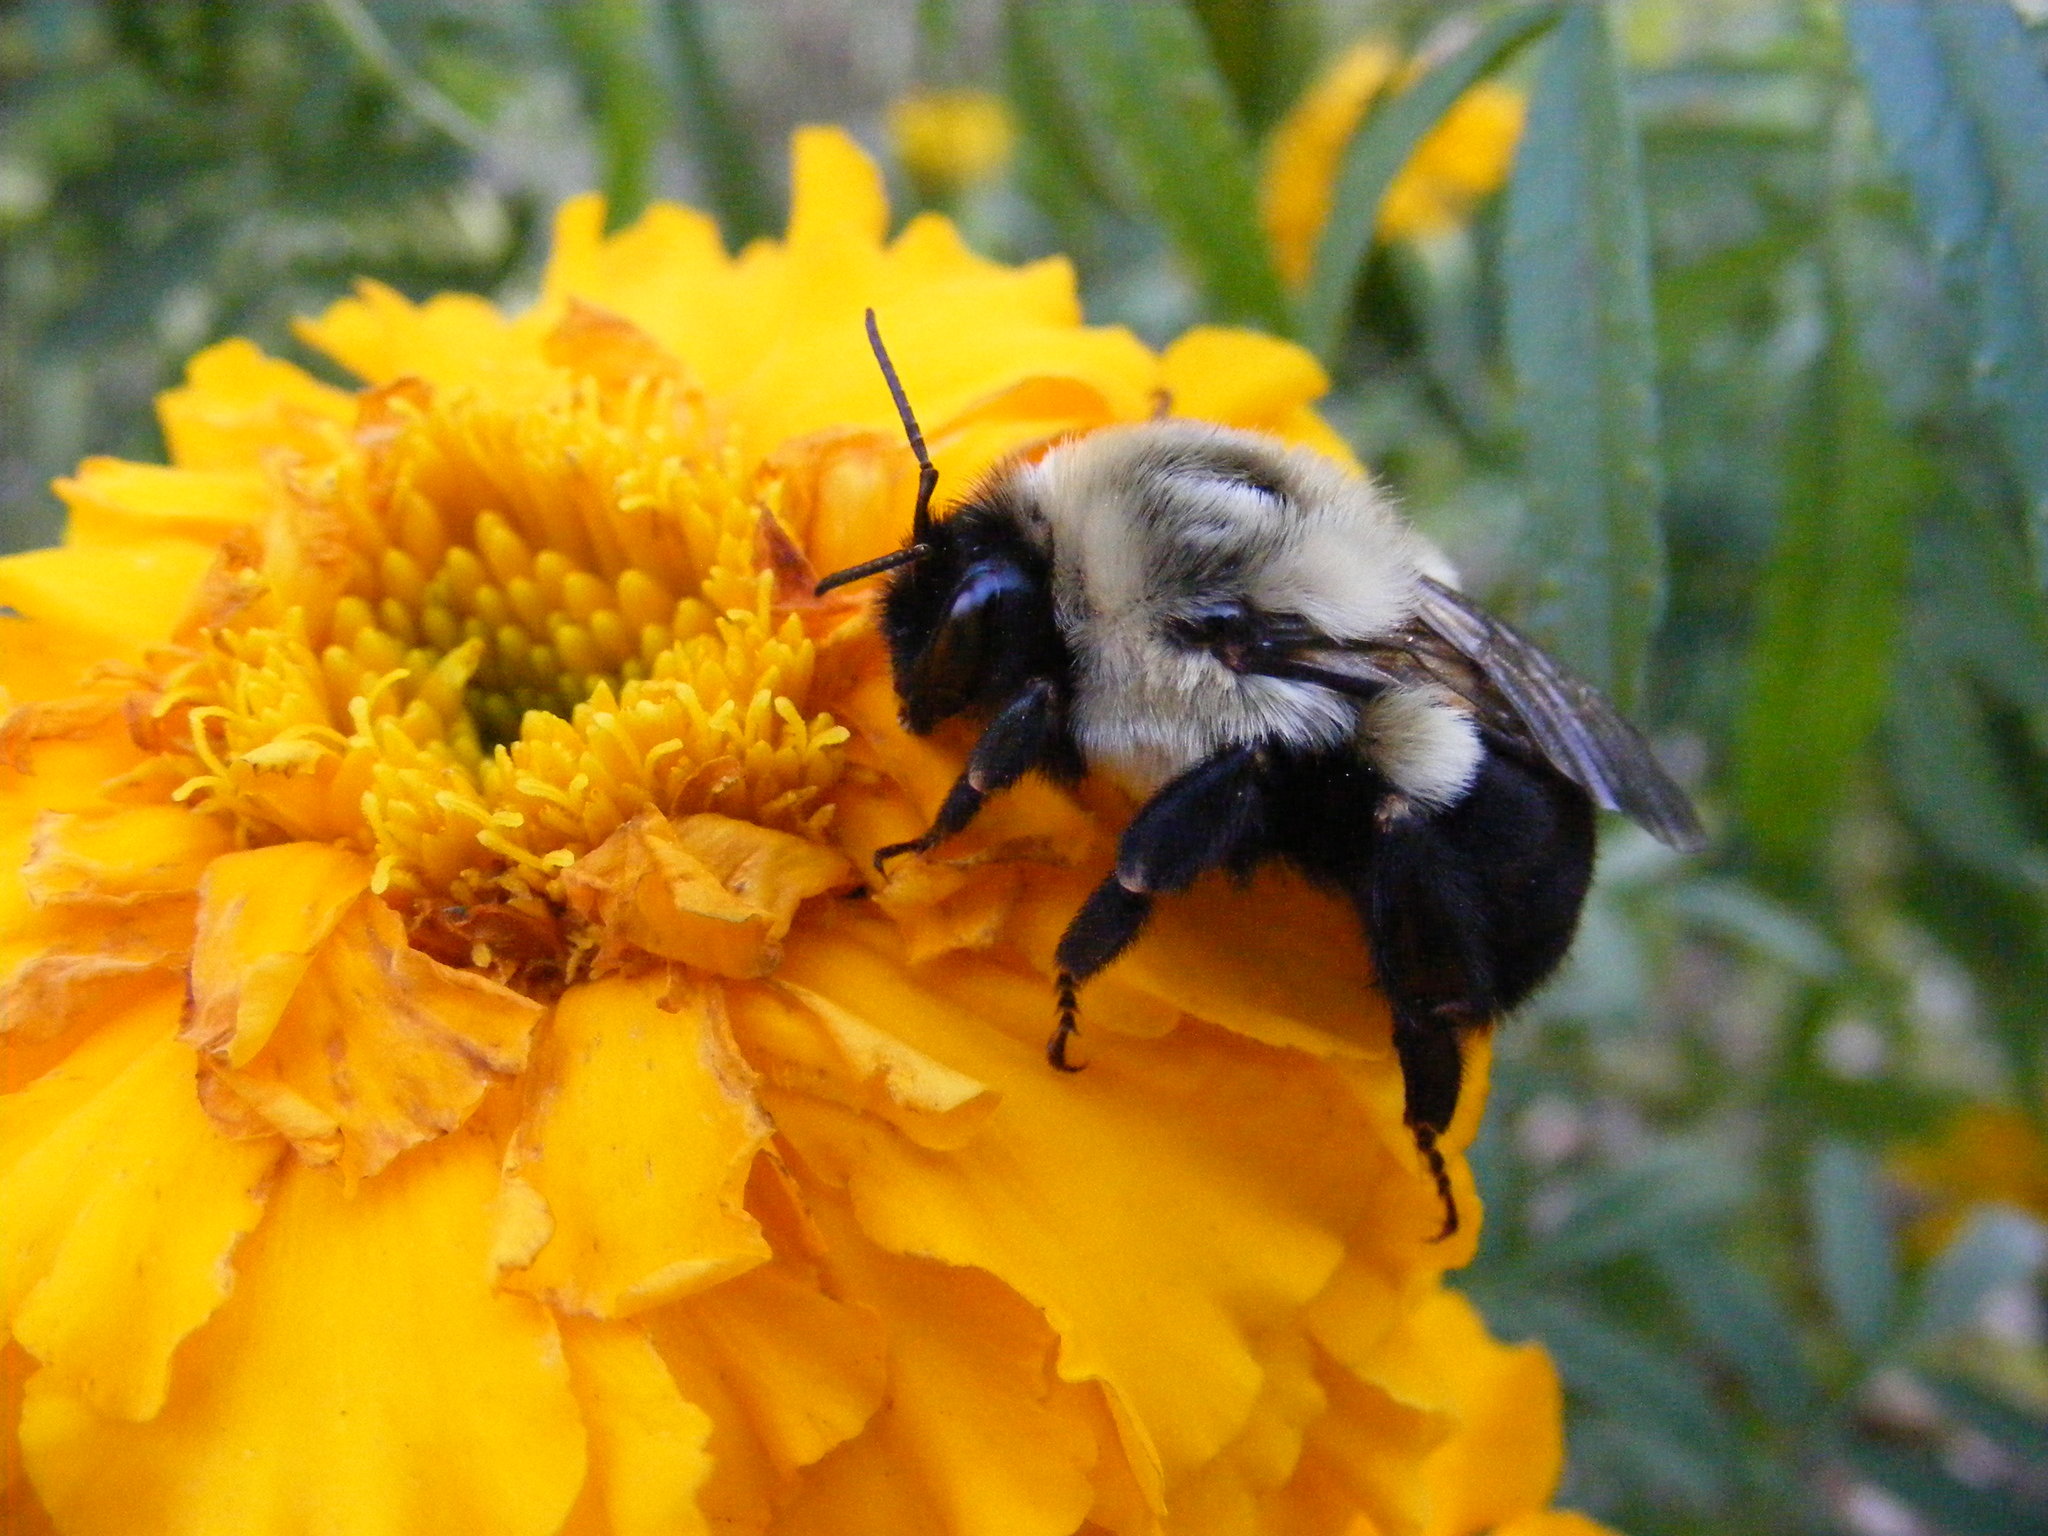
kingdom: Animalia
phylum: Arthropoda
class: Insecta
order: Hymenoptera
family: Apidae
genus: Bombus
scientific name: Bombus impatiens
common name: Common eastern bumble bee
